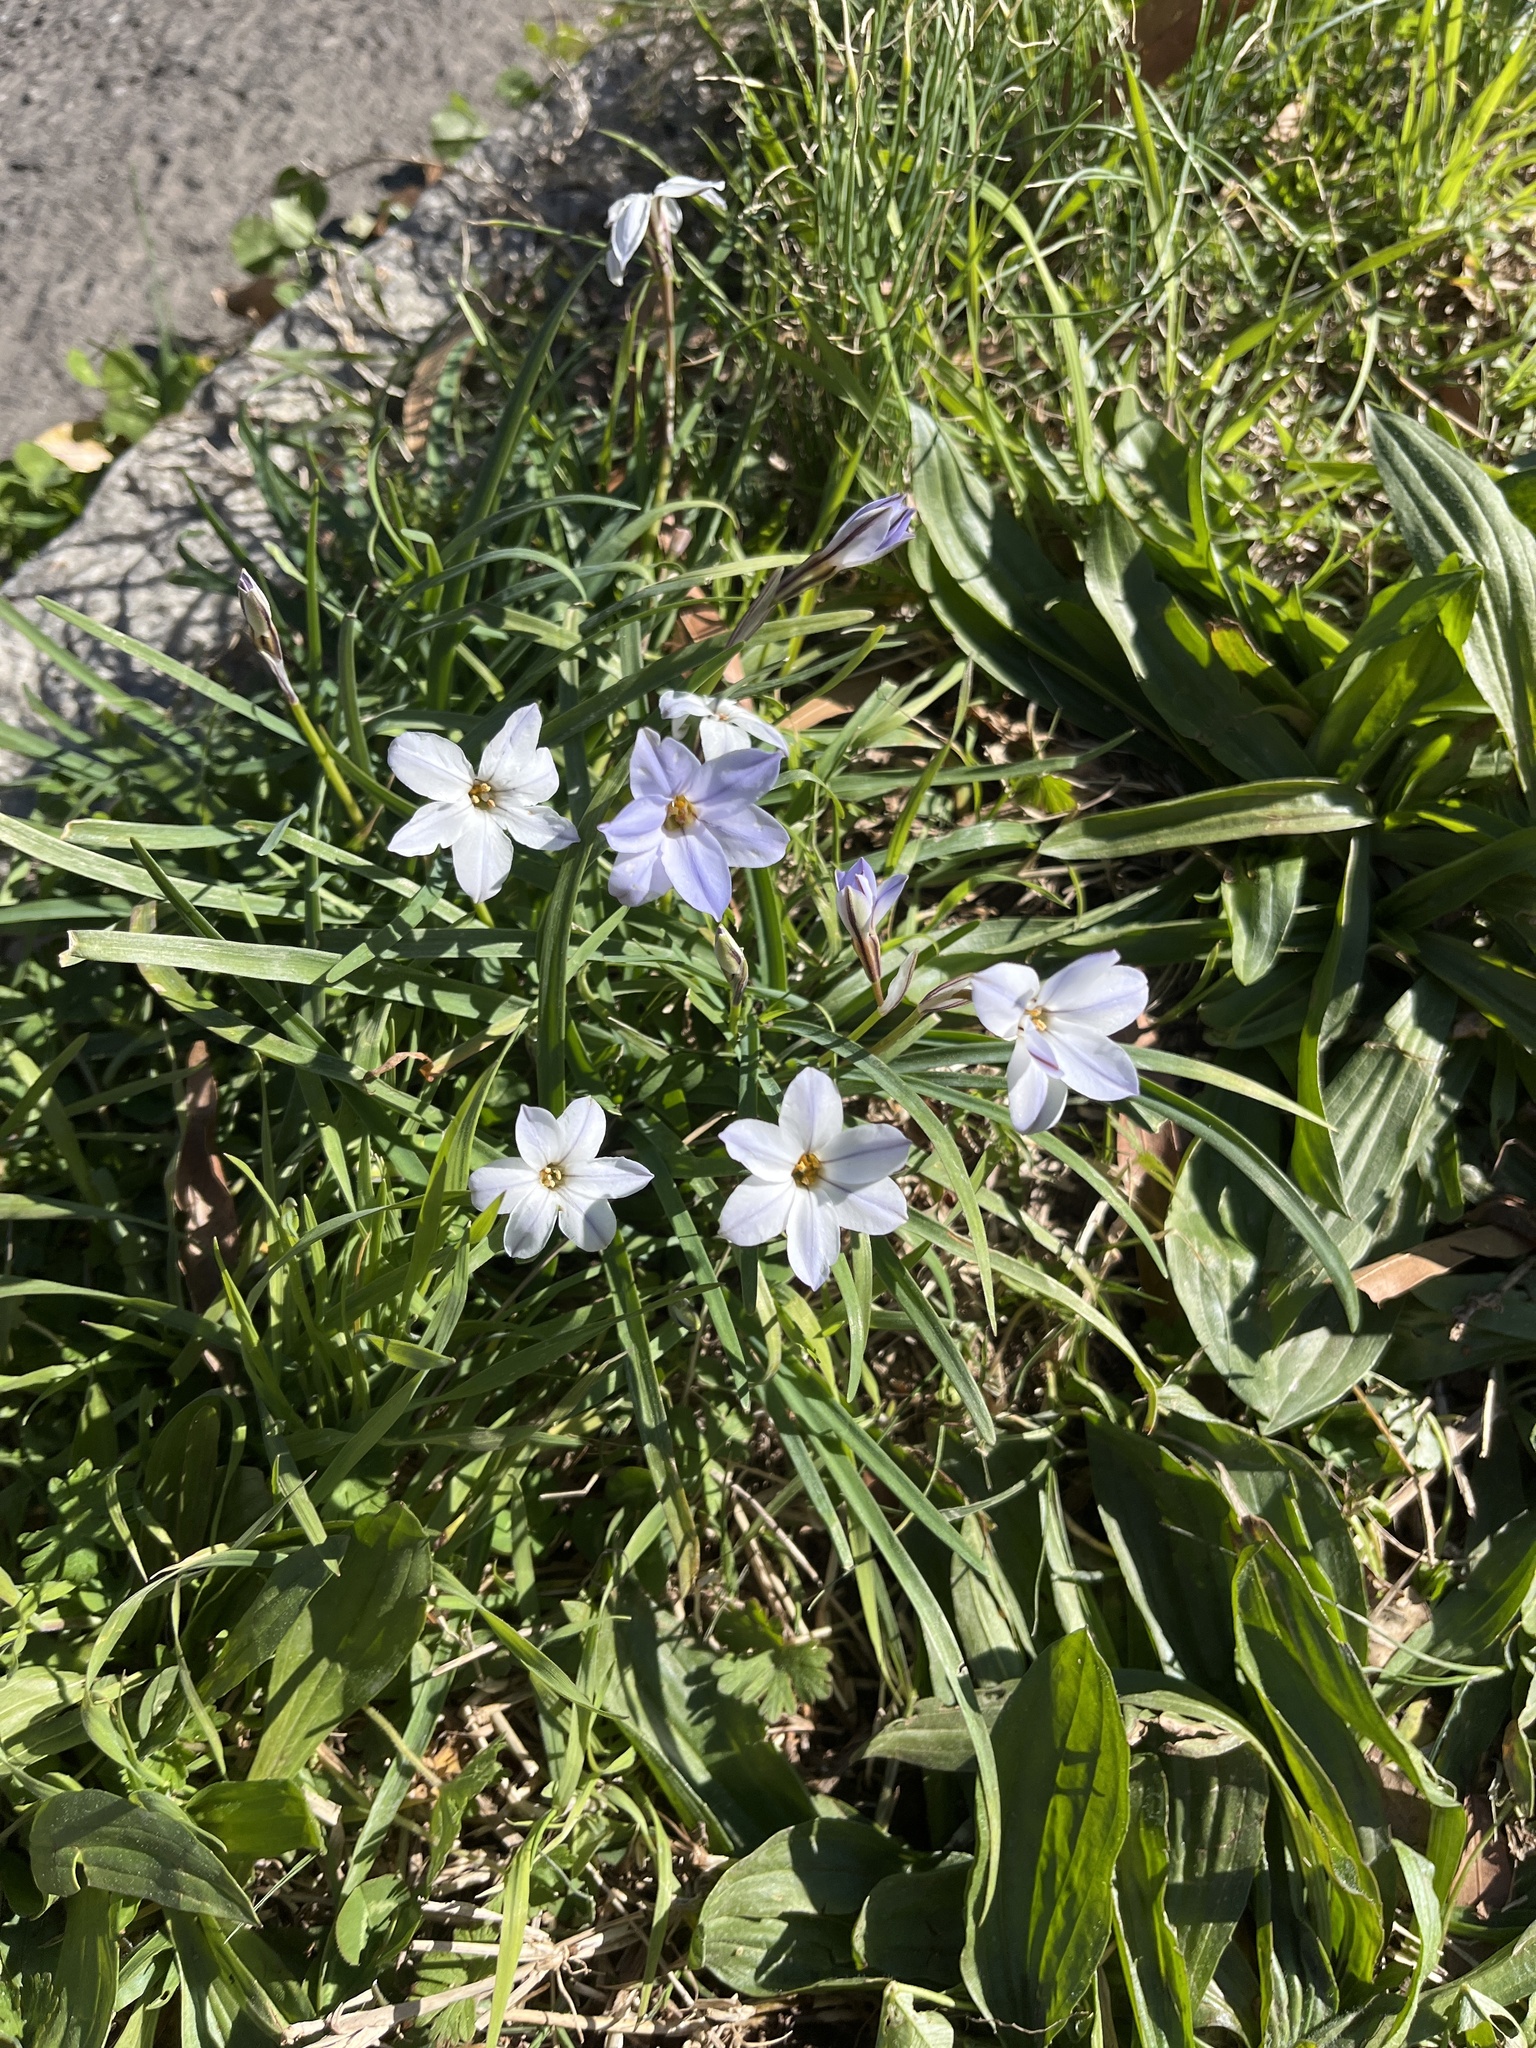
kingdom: Plantae
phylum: Tracheophyta
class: Liliopsida
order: Asparagales
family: Amaryllidaceae
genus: Ipheion
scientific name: Ipheion uniflorum
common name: Spring starflower
